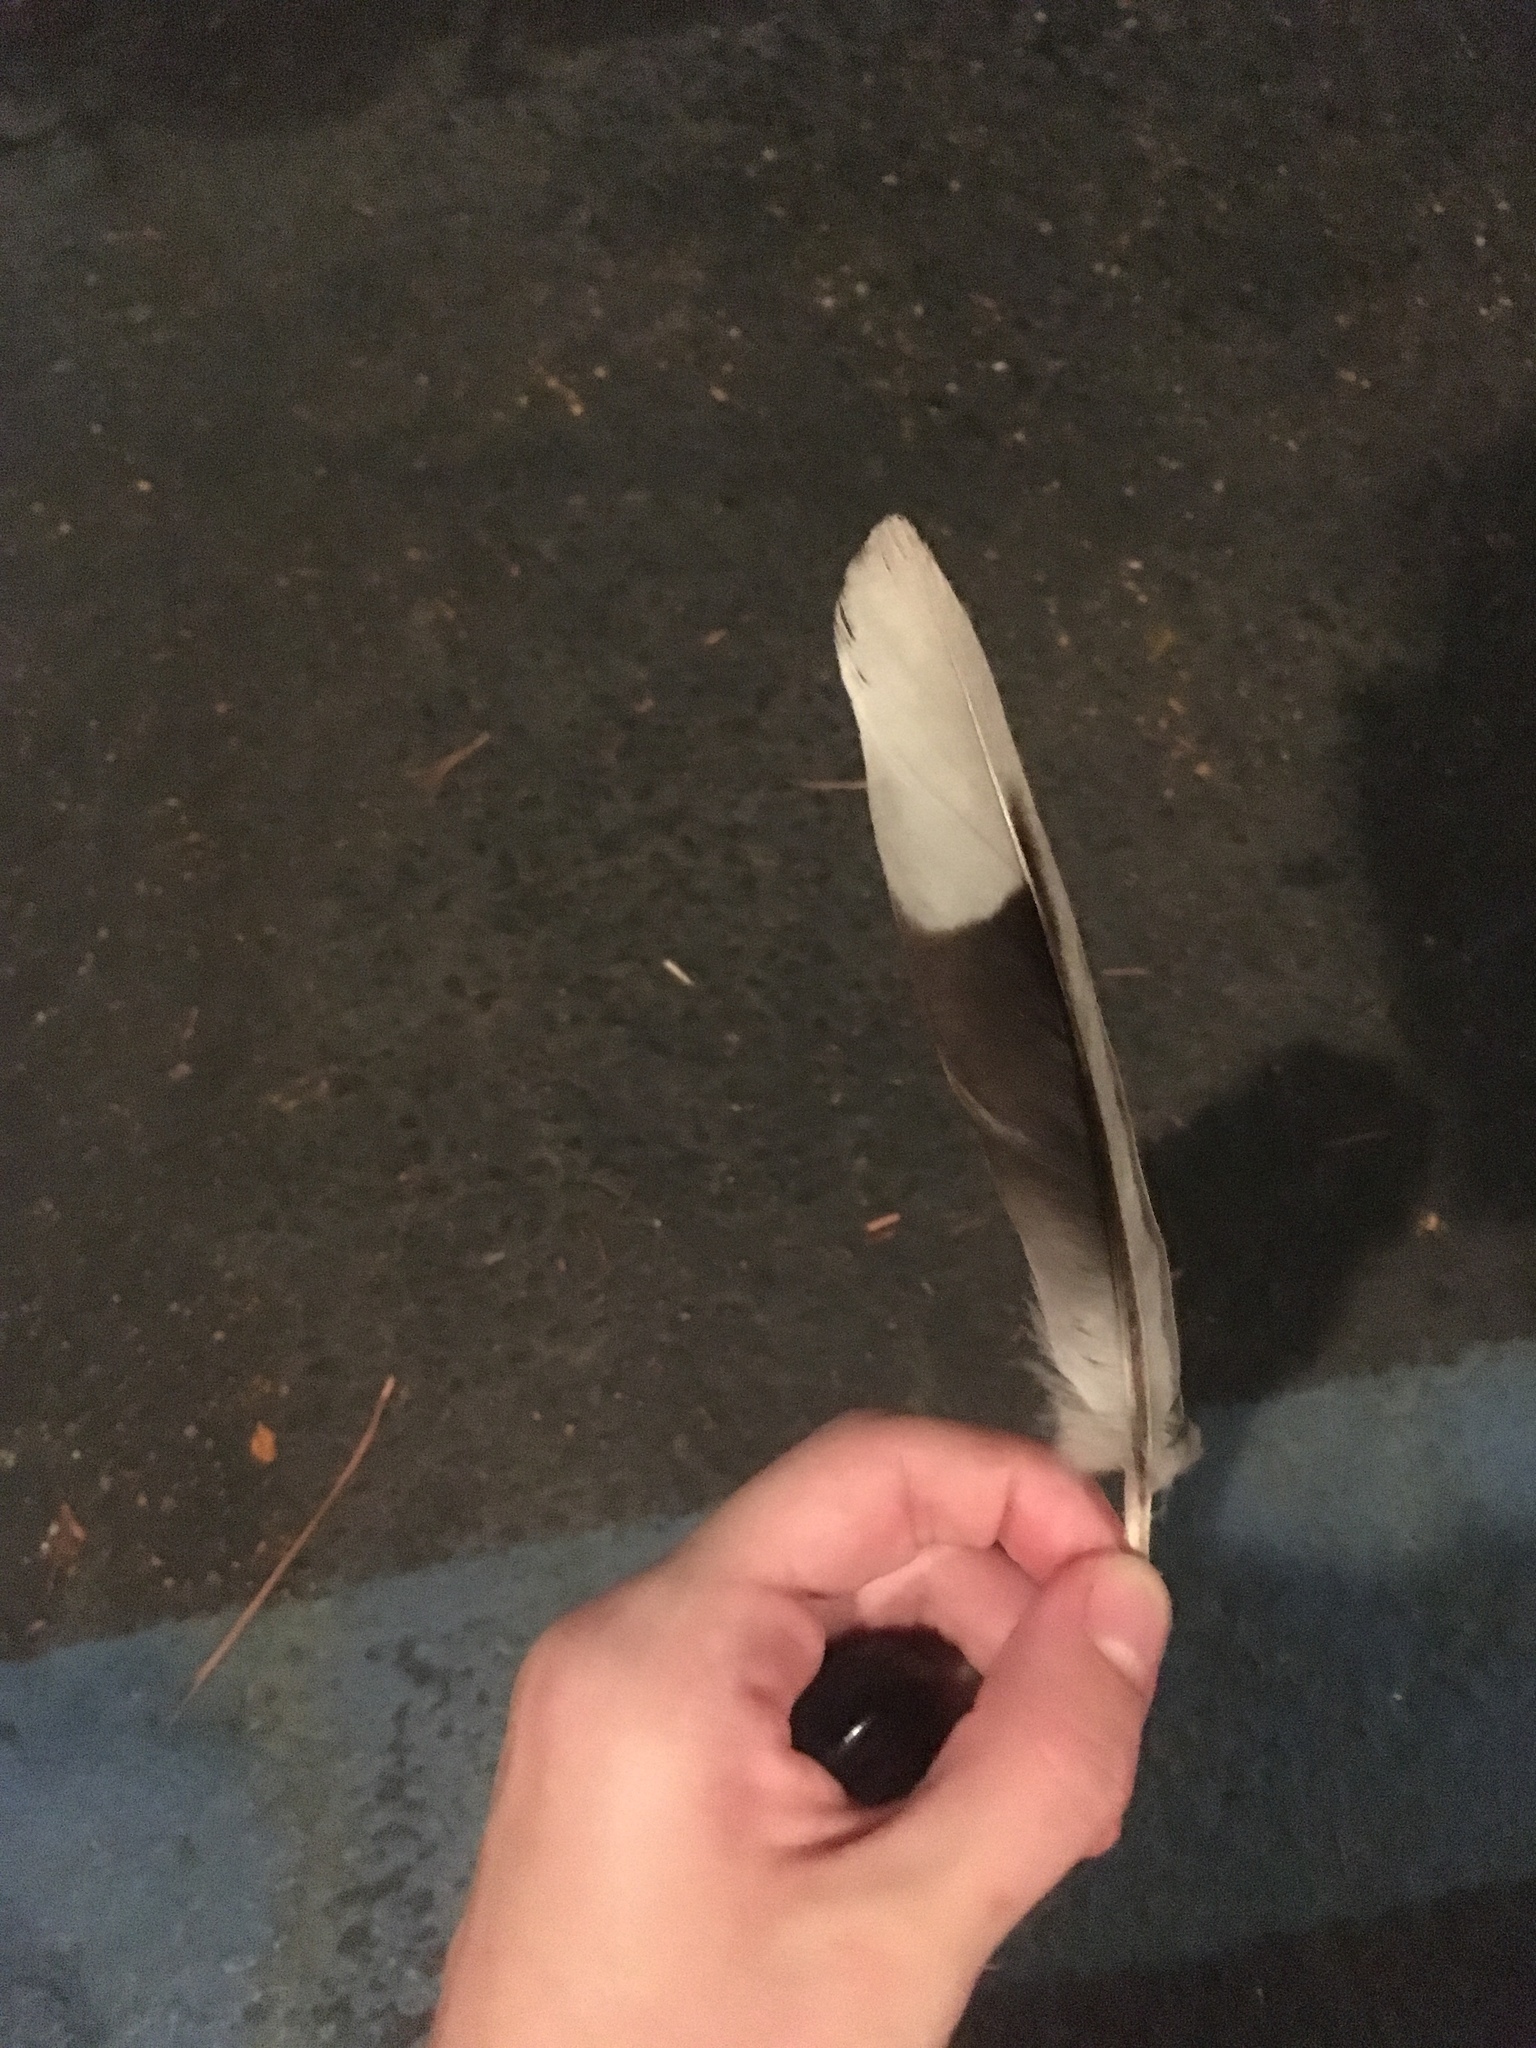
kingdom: Animalia
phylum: Chordata
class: Aves
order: Columbiformes
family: Columbidae
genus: Streptopelia
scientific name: Streptopelia decaocto
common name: Eurasian collared dove
